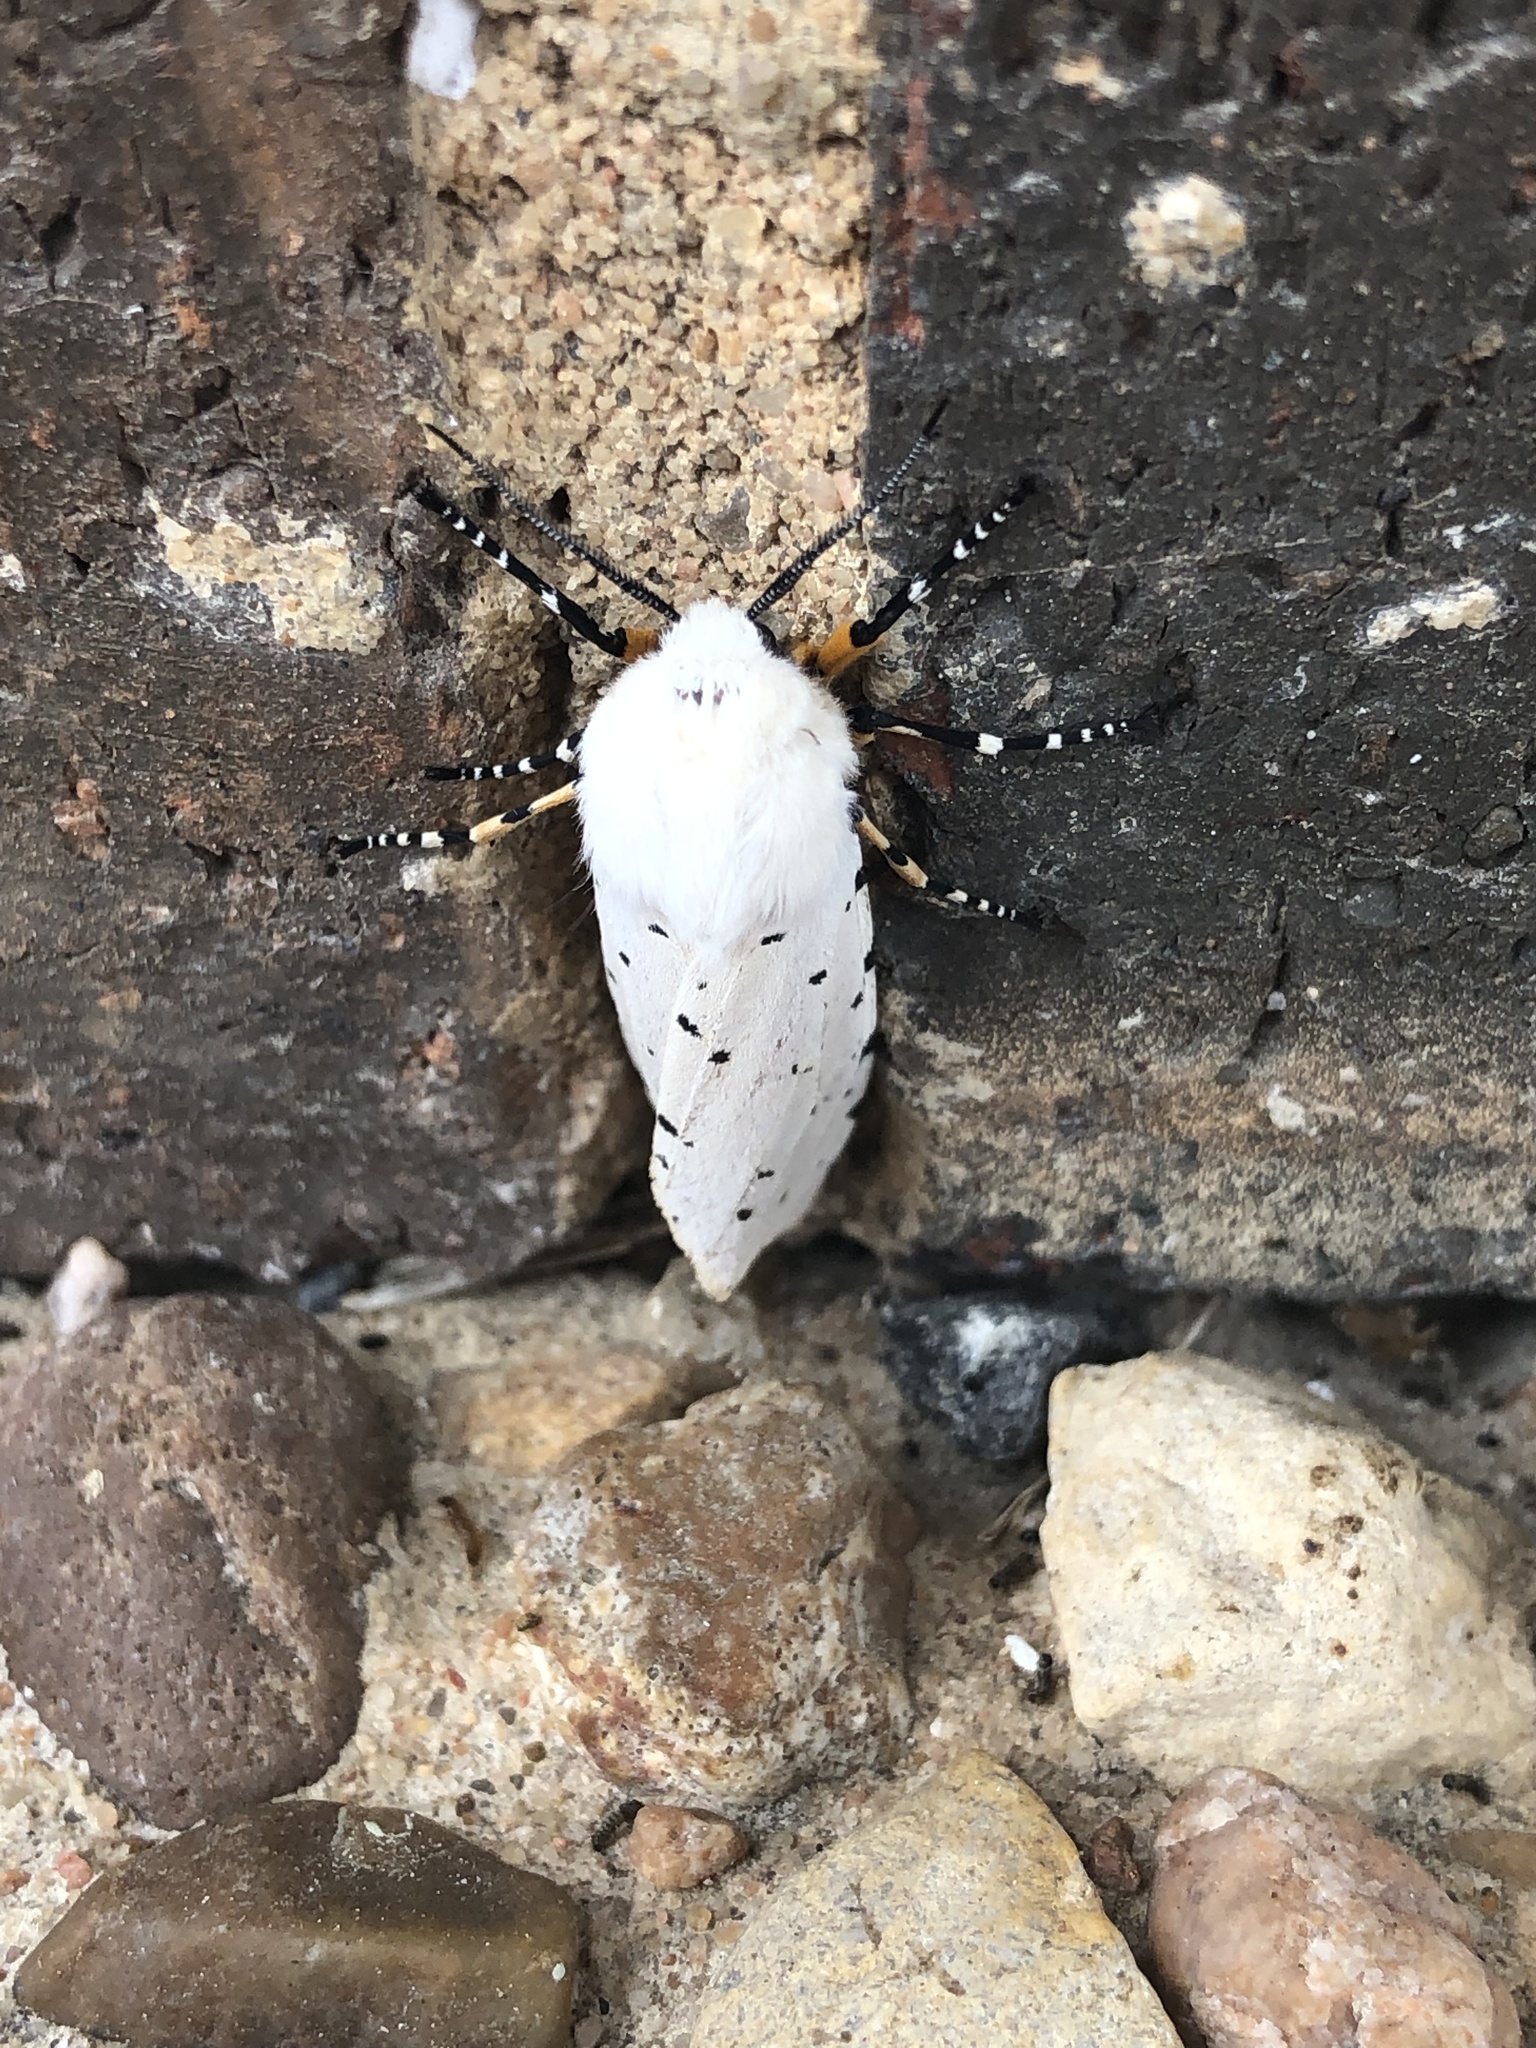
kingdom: Animalia
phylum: Arthropoda
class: Insecta
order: Lepidoptera
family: Erebidae
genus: Estigmene
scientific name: Estigmene acrea
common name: Salt marsh moth
